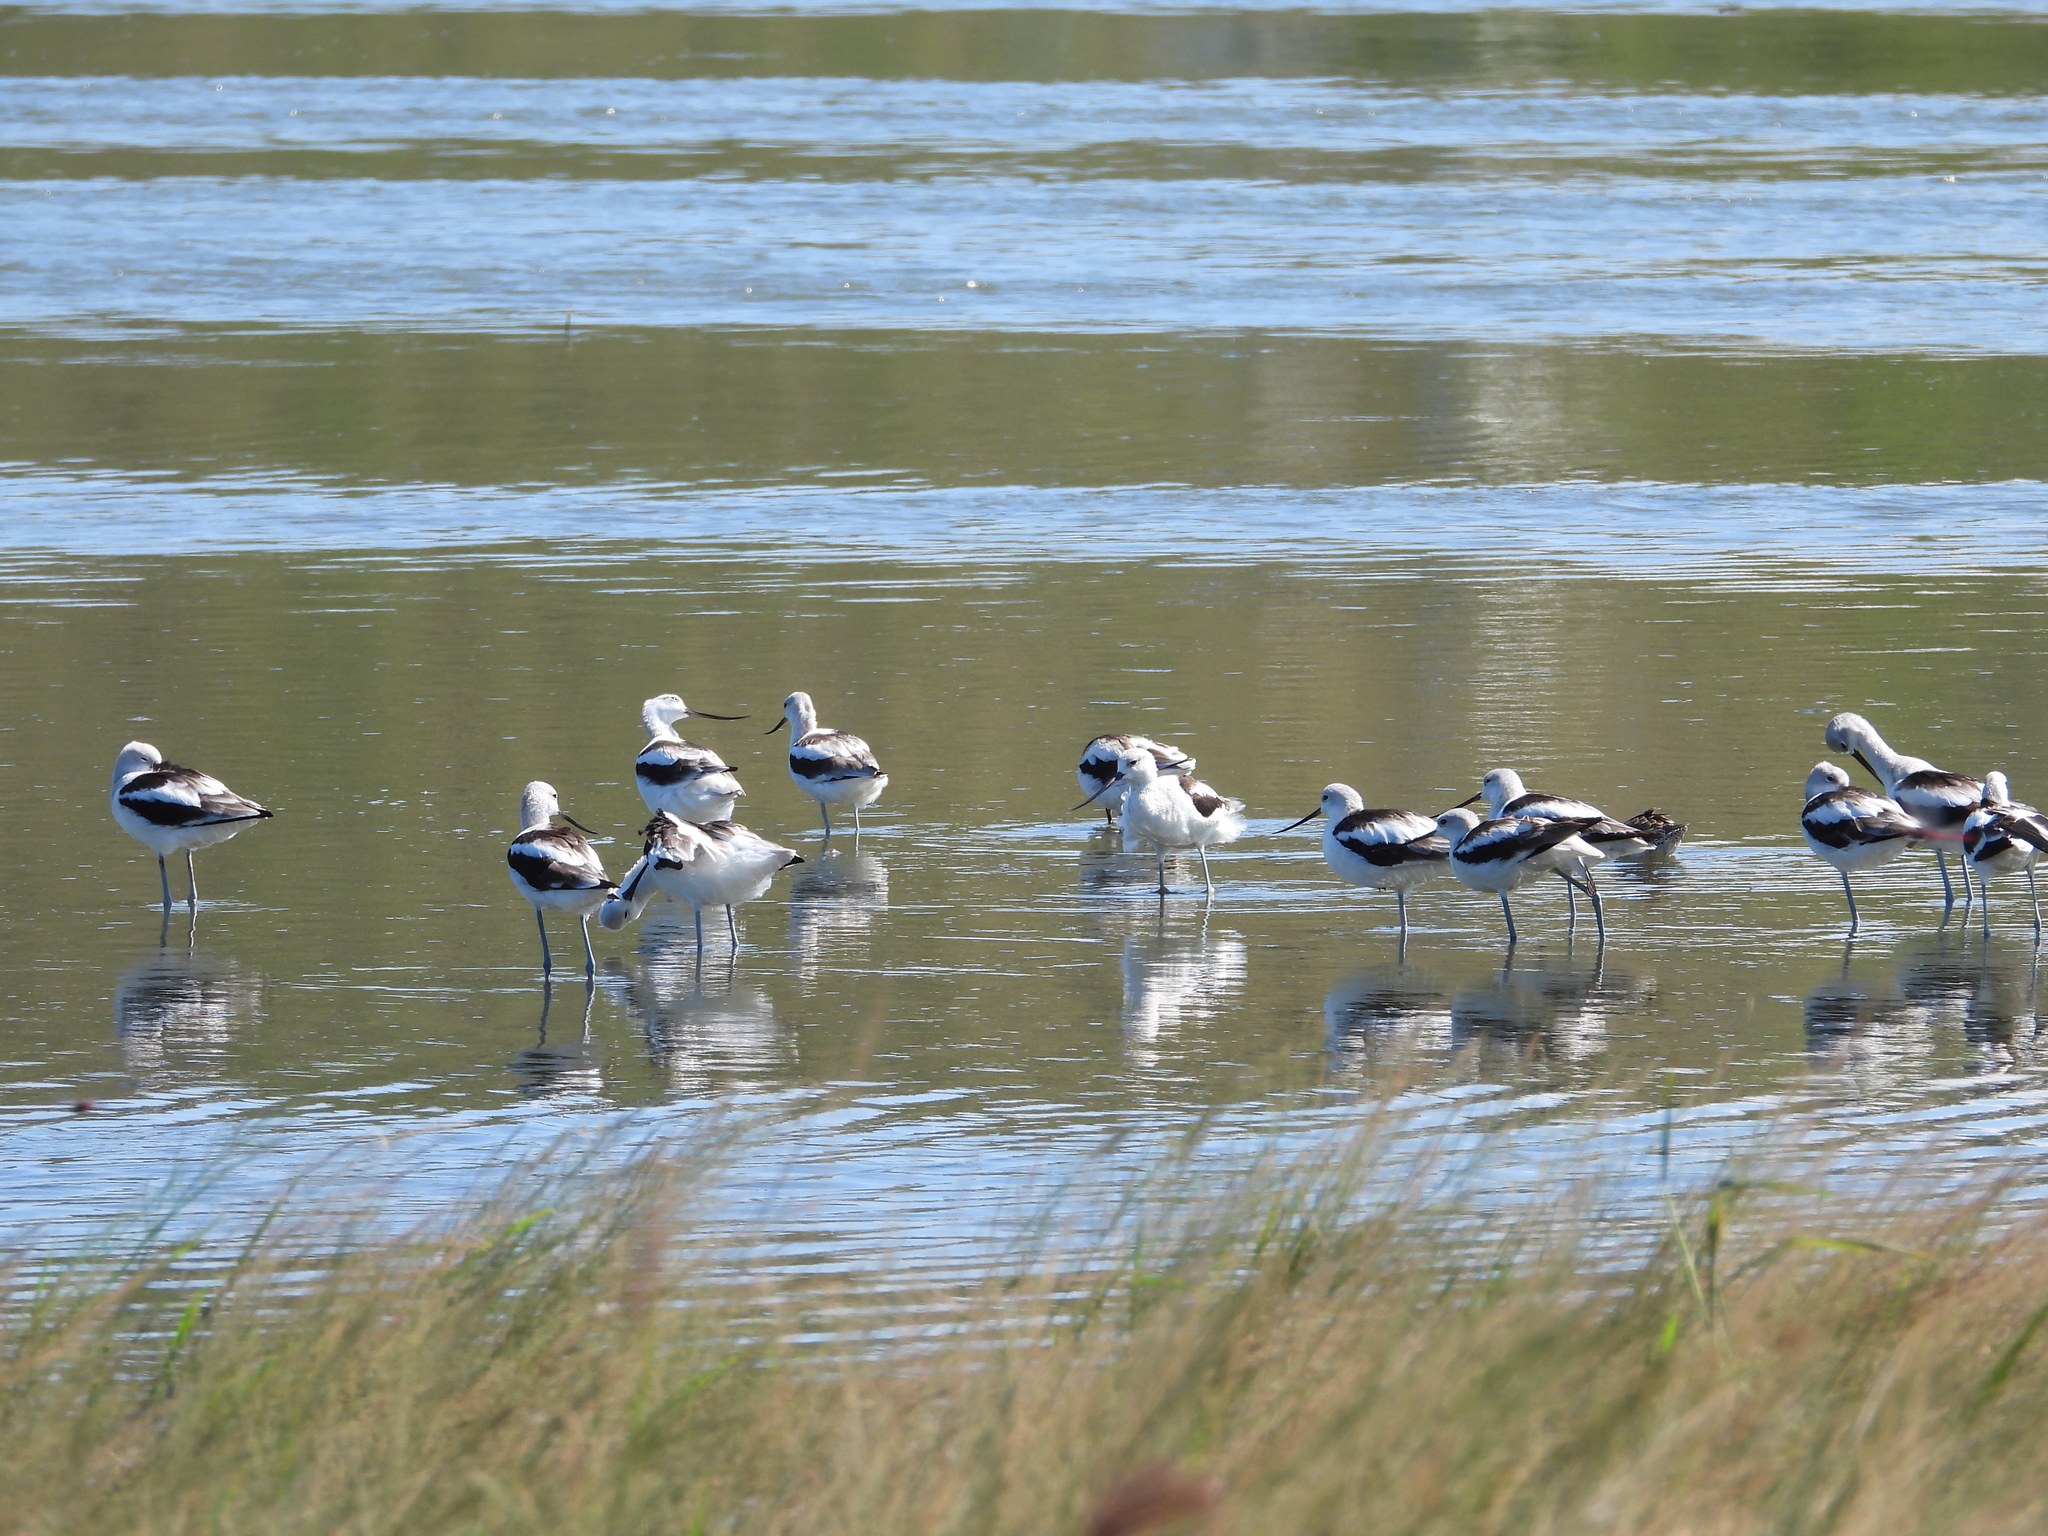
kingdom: Animalia
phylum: Chordata
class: Aves
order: Charadriiformes
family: Recurvirostridae
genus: Recurvirostra
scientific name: Recurvirostra americana
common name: American avocet
